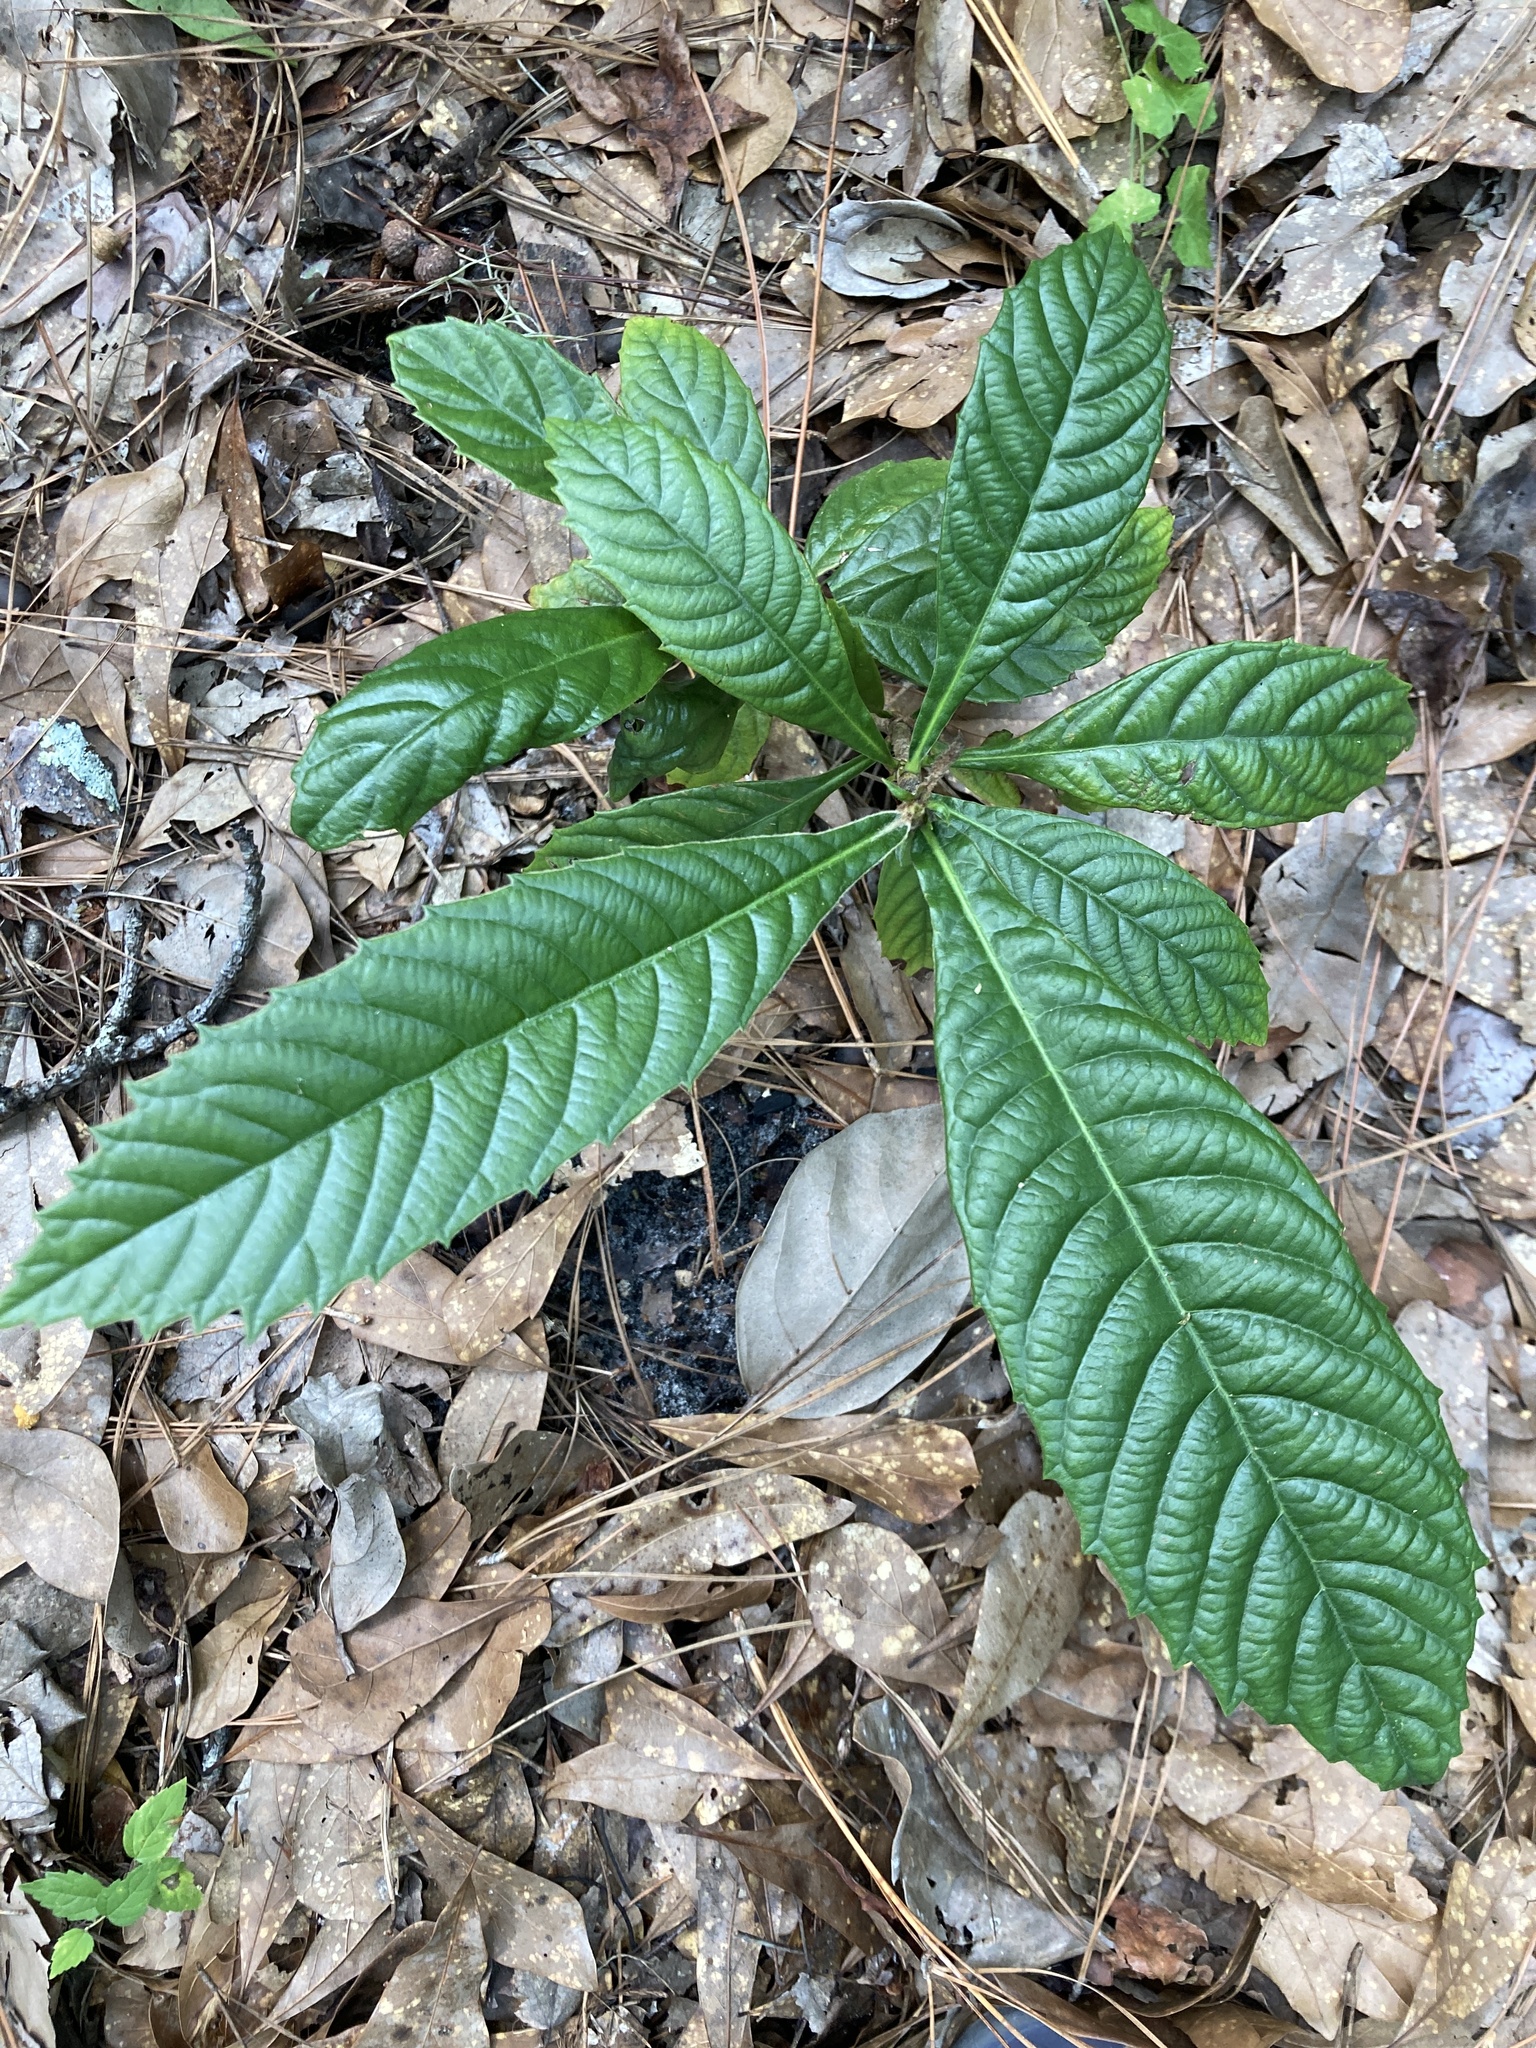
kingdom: Plantae
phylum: Tracheophyta
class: Magnoliopsida
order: Rosales
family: Rosaceae
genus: Rhaphiolepis
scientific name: Rhaphiolepis bibas
